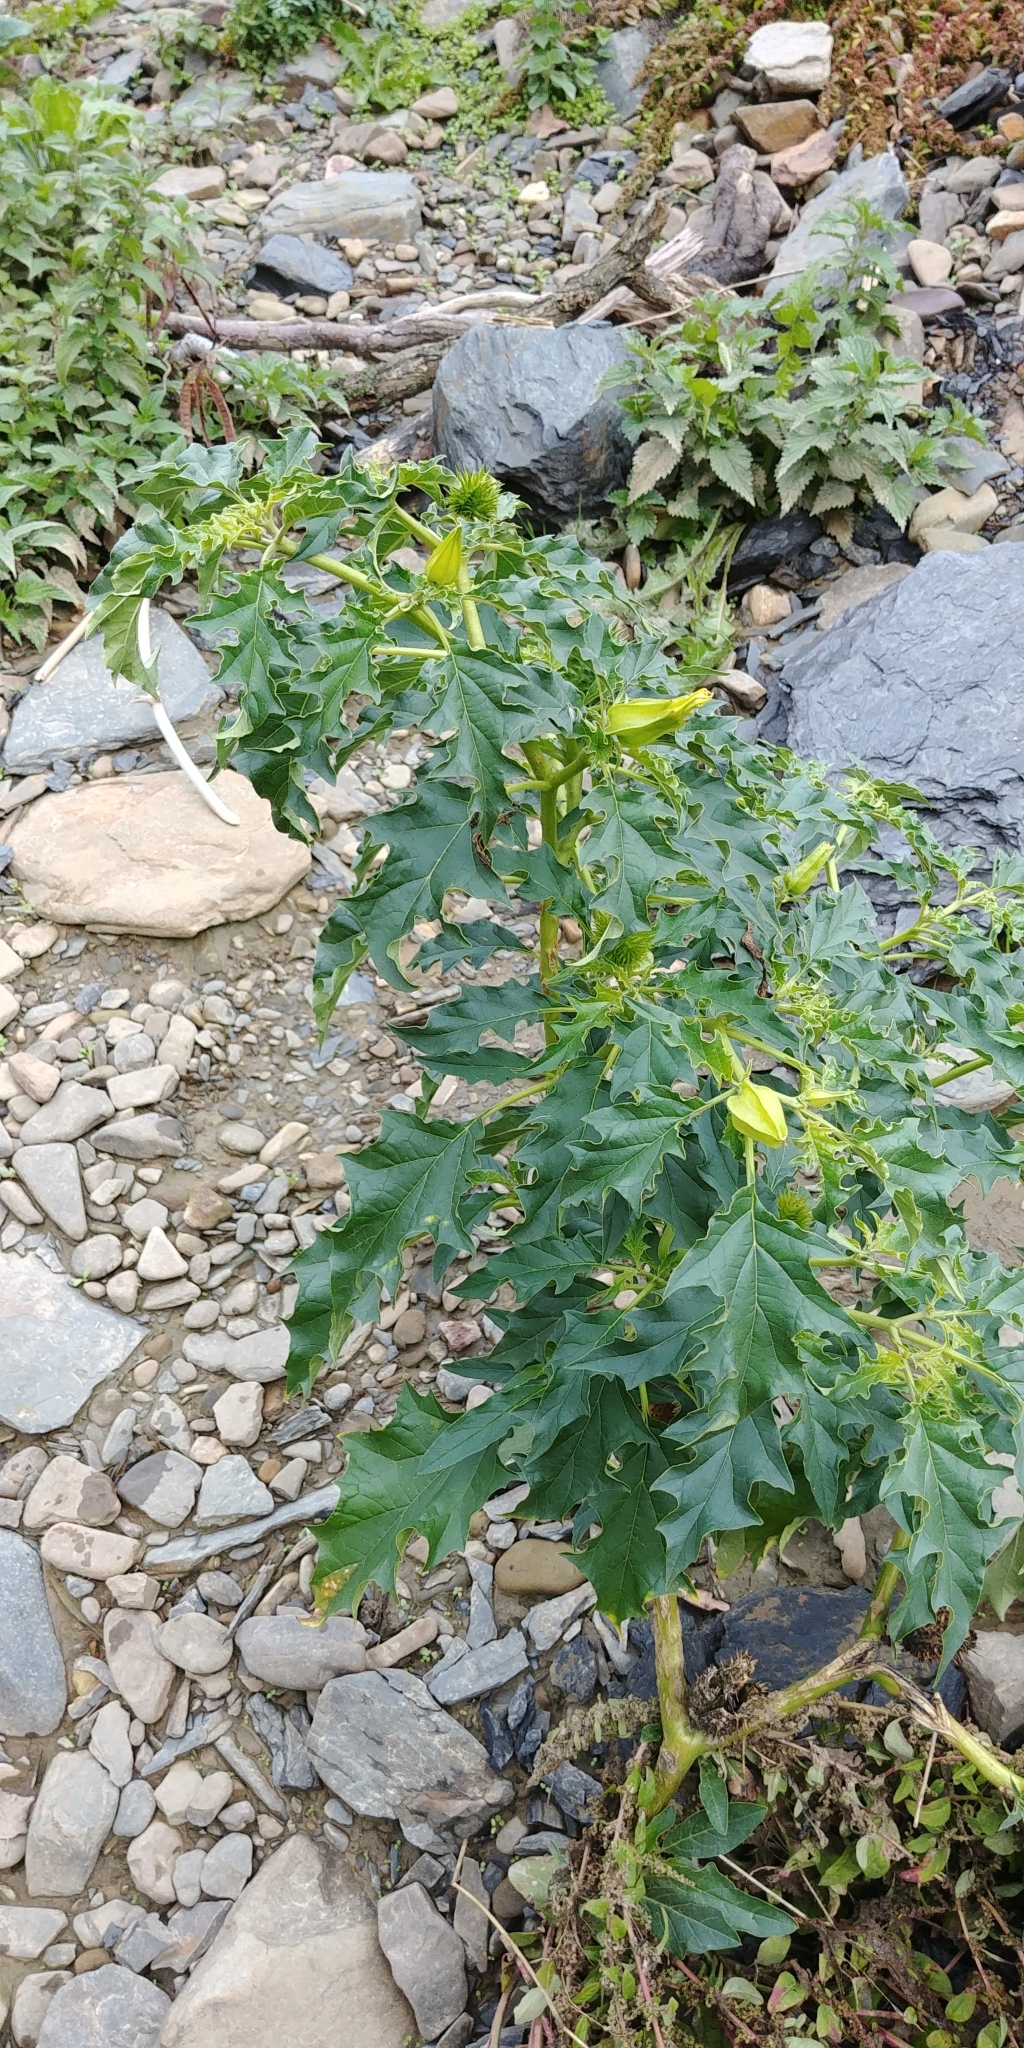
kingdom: Plantae
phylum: Tracheophyta
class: Magnoliopsida
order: Solanales
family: Solanaceae
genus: Datura
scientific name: Datura stramonium
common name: Thorn-apple
